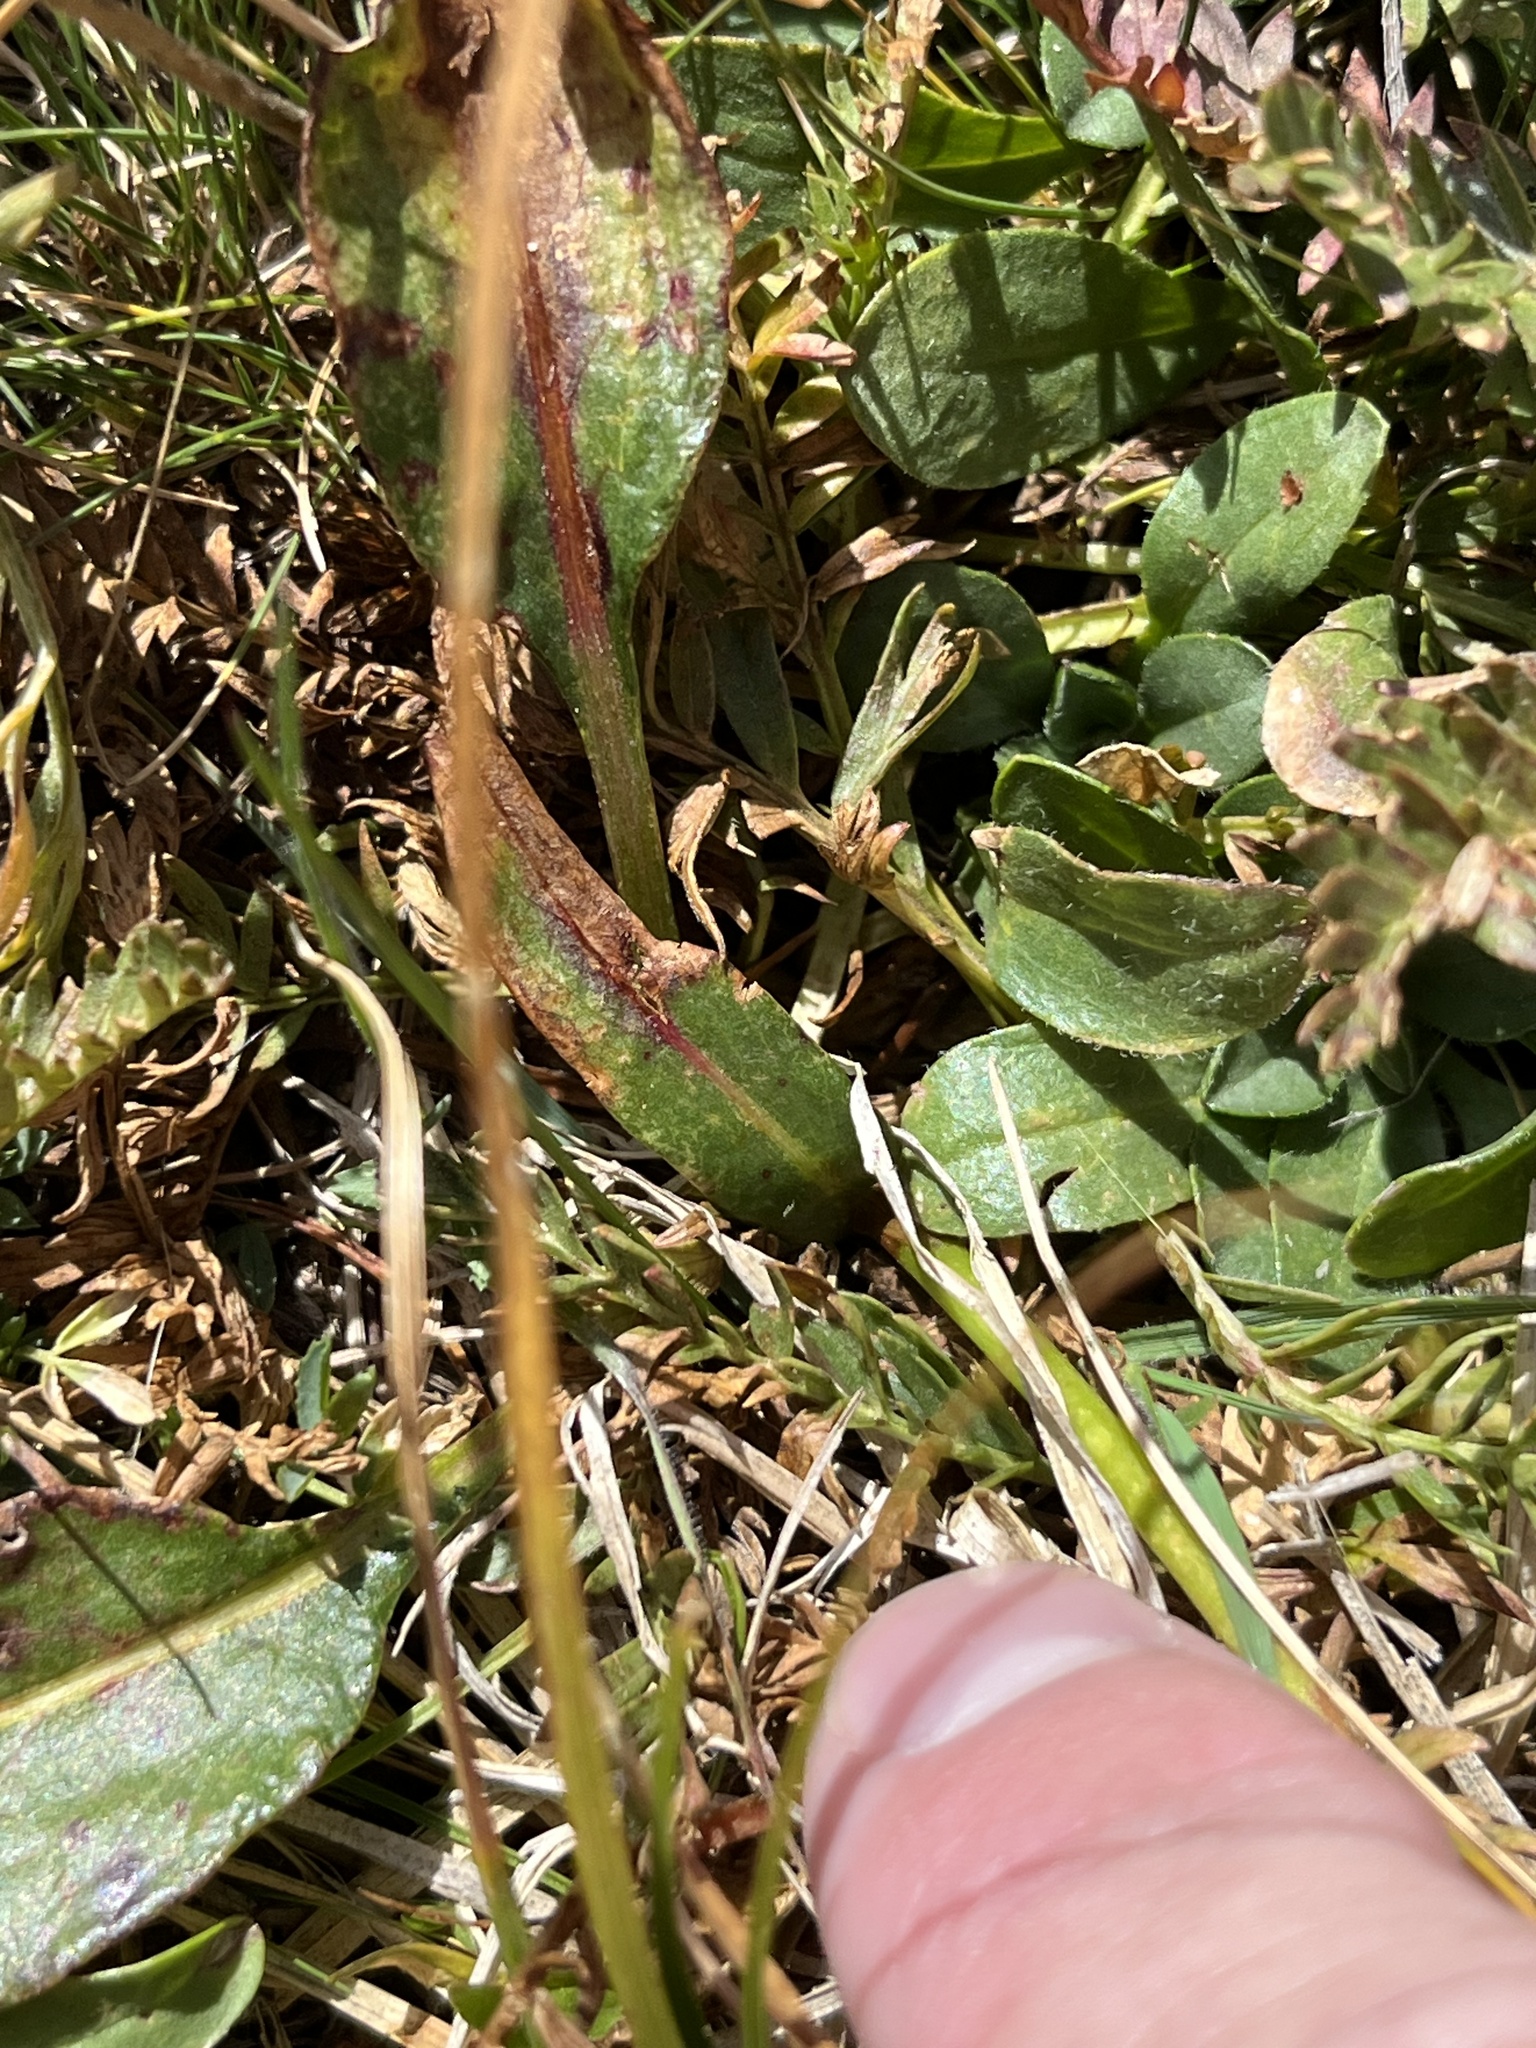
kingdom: Plantae
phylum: Tracheophyta
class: Magnoliopsida
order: Caryophyllales
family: Polygonaceae
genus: Bistorta
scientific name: Bistorta bistortoides
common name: American bistort
